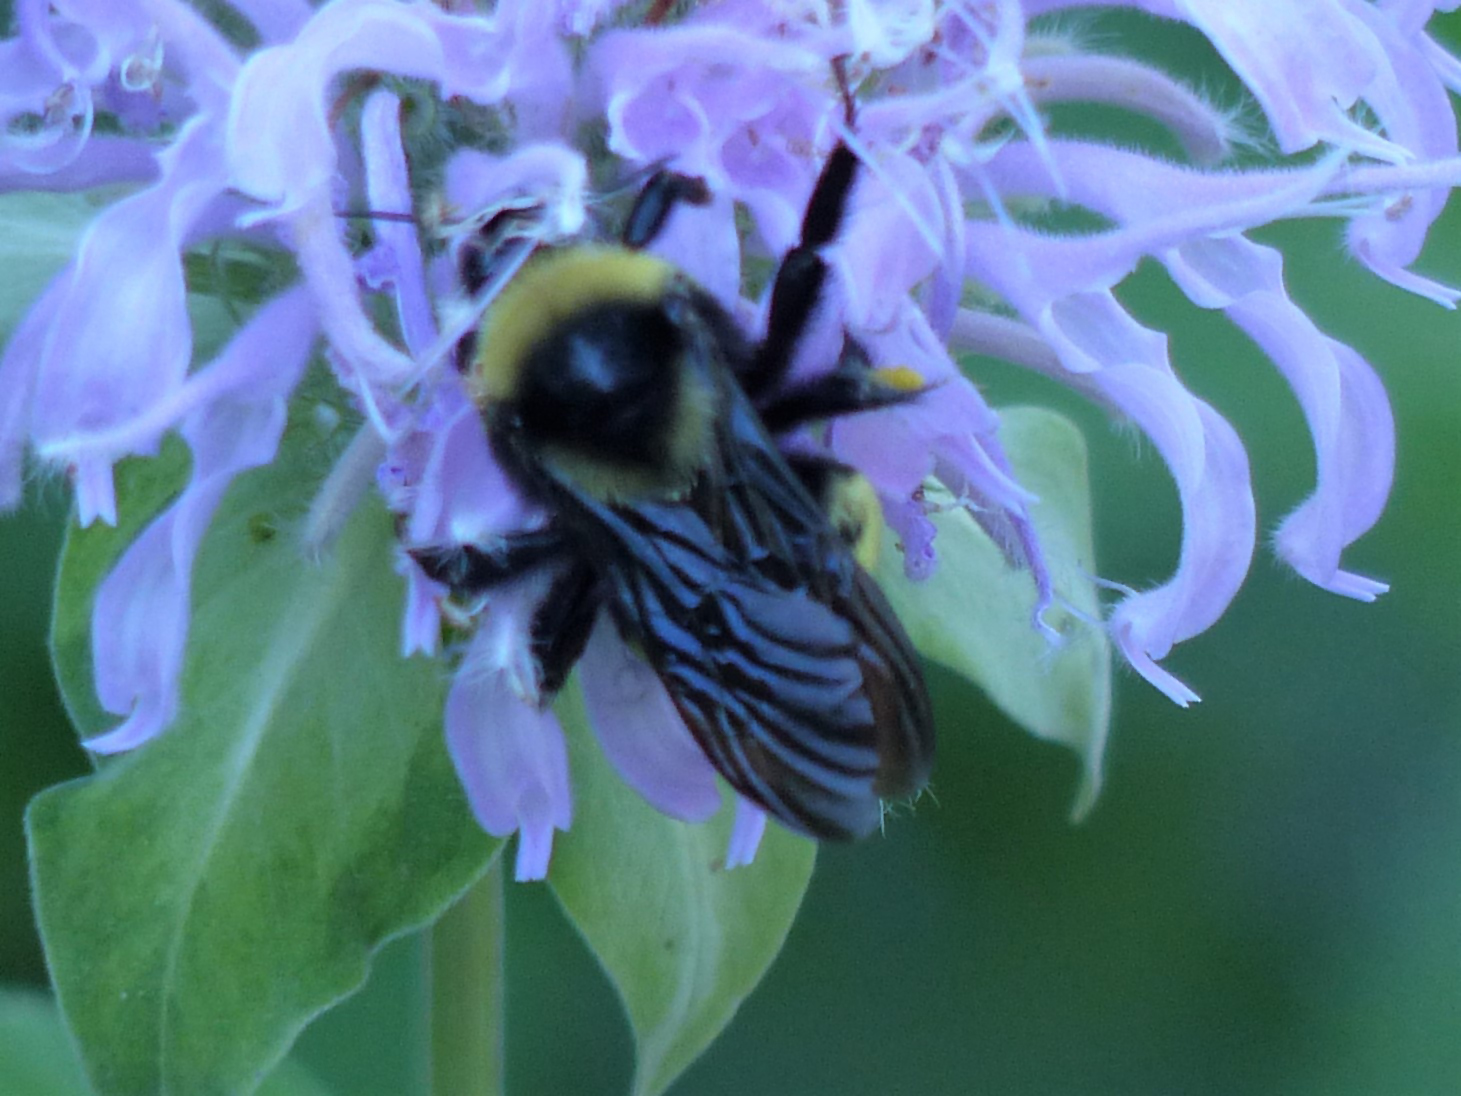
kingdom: Animalia
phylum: Arthropoda
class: Insecta
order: Hymenoptera
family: Apidae
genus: Bombus
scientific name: Bombus auricomus
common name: Black and gold bumble bee
